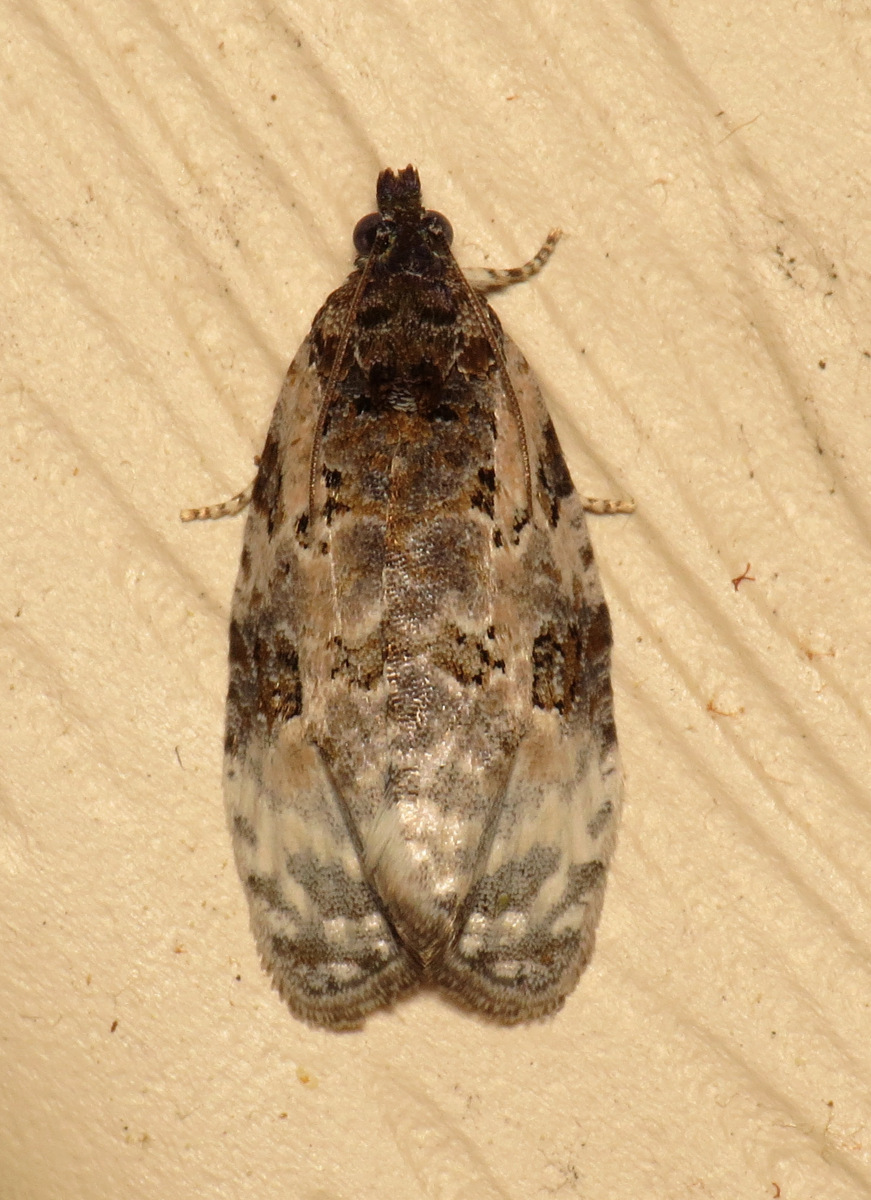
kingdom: Animalia
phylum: Arthropoda
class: Insecta
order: Lepidoptera
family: Tortricidae
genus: Apotomis
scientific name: Apotomis albeolana
